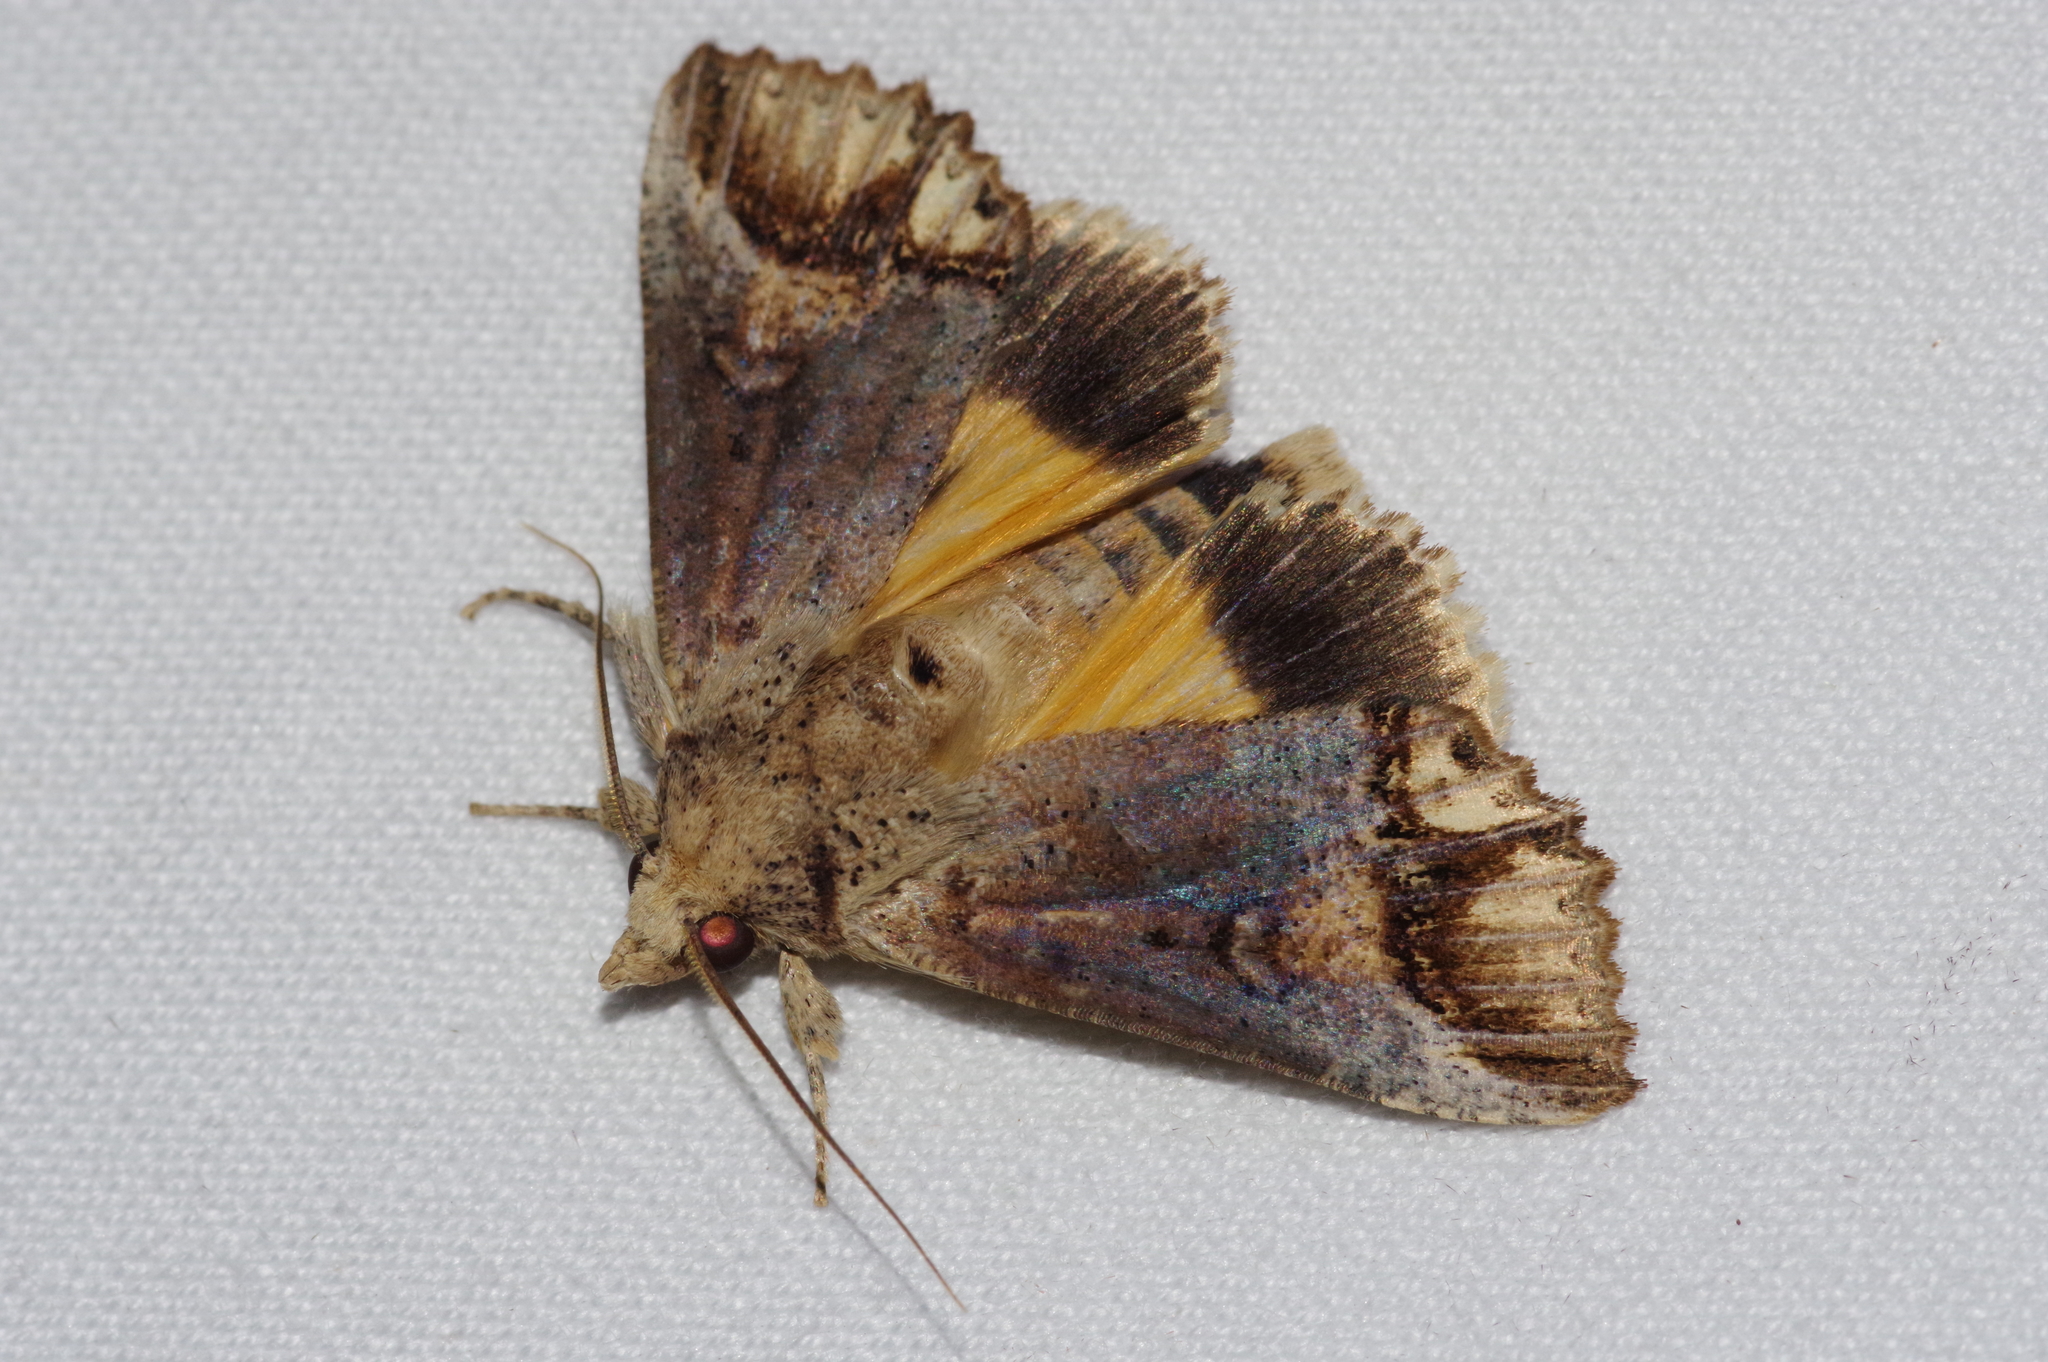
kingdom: Animalia
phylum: Arthropoda
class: Insecta
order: Lepidoptera
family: Erebidae
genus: Hypocala
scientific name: Hypocala biarcuata
